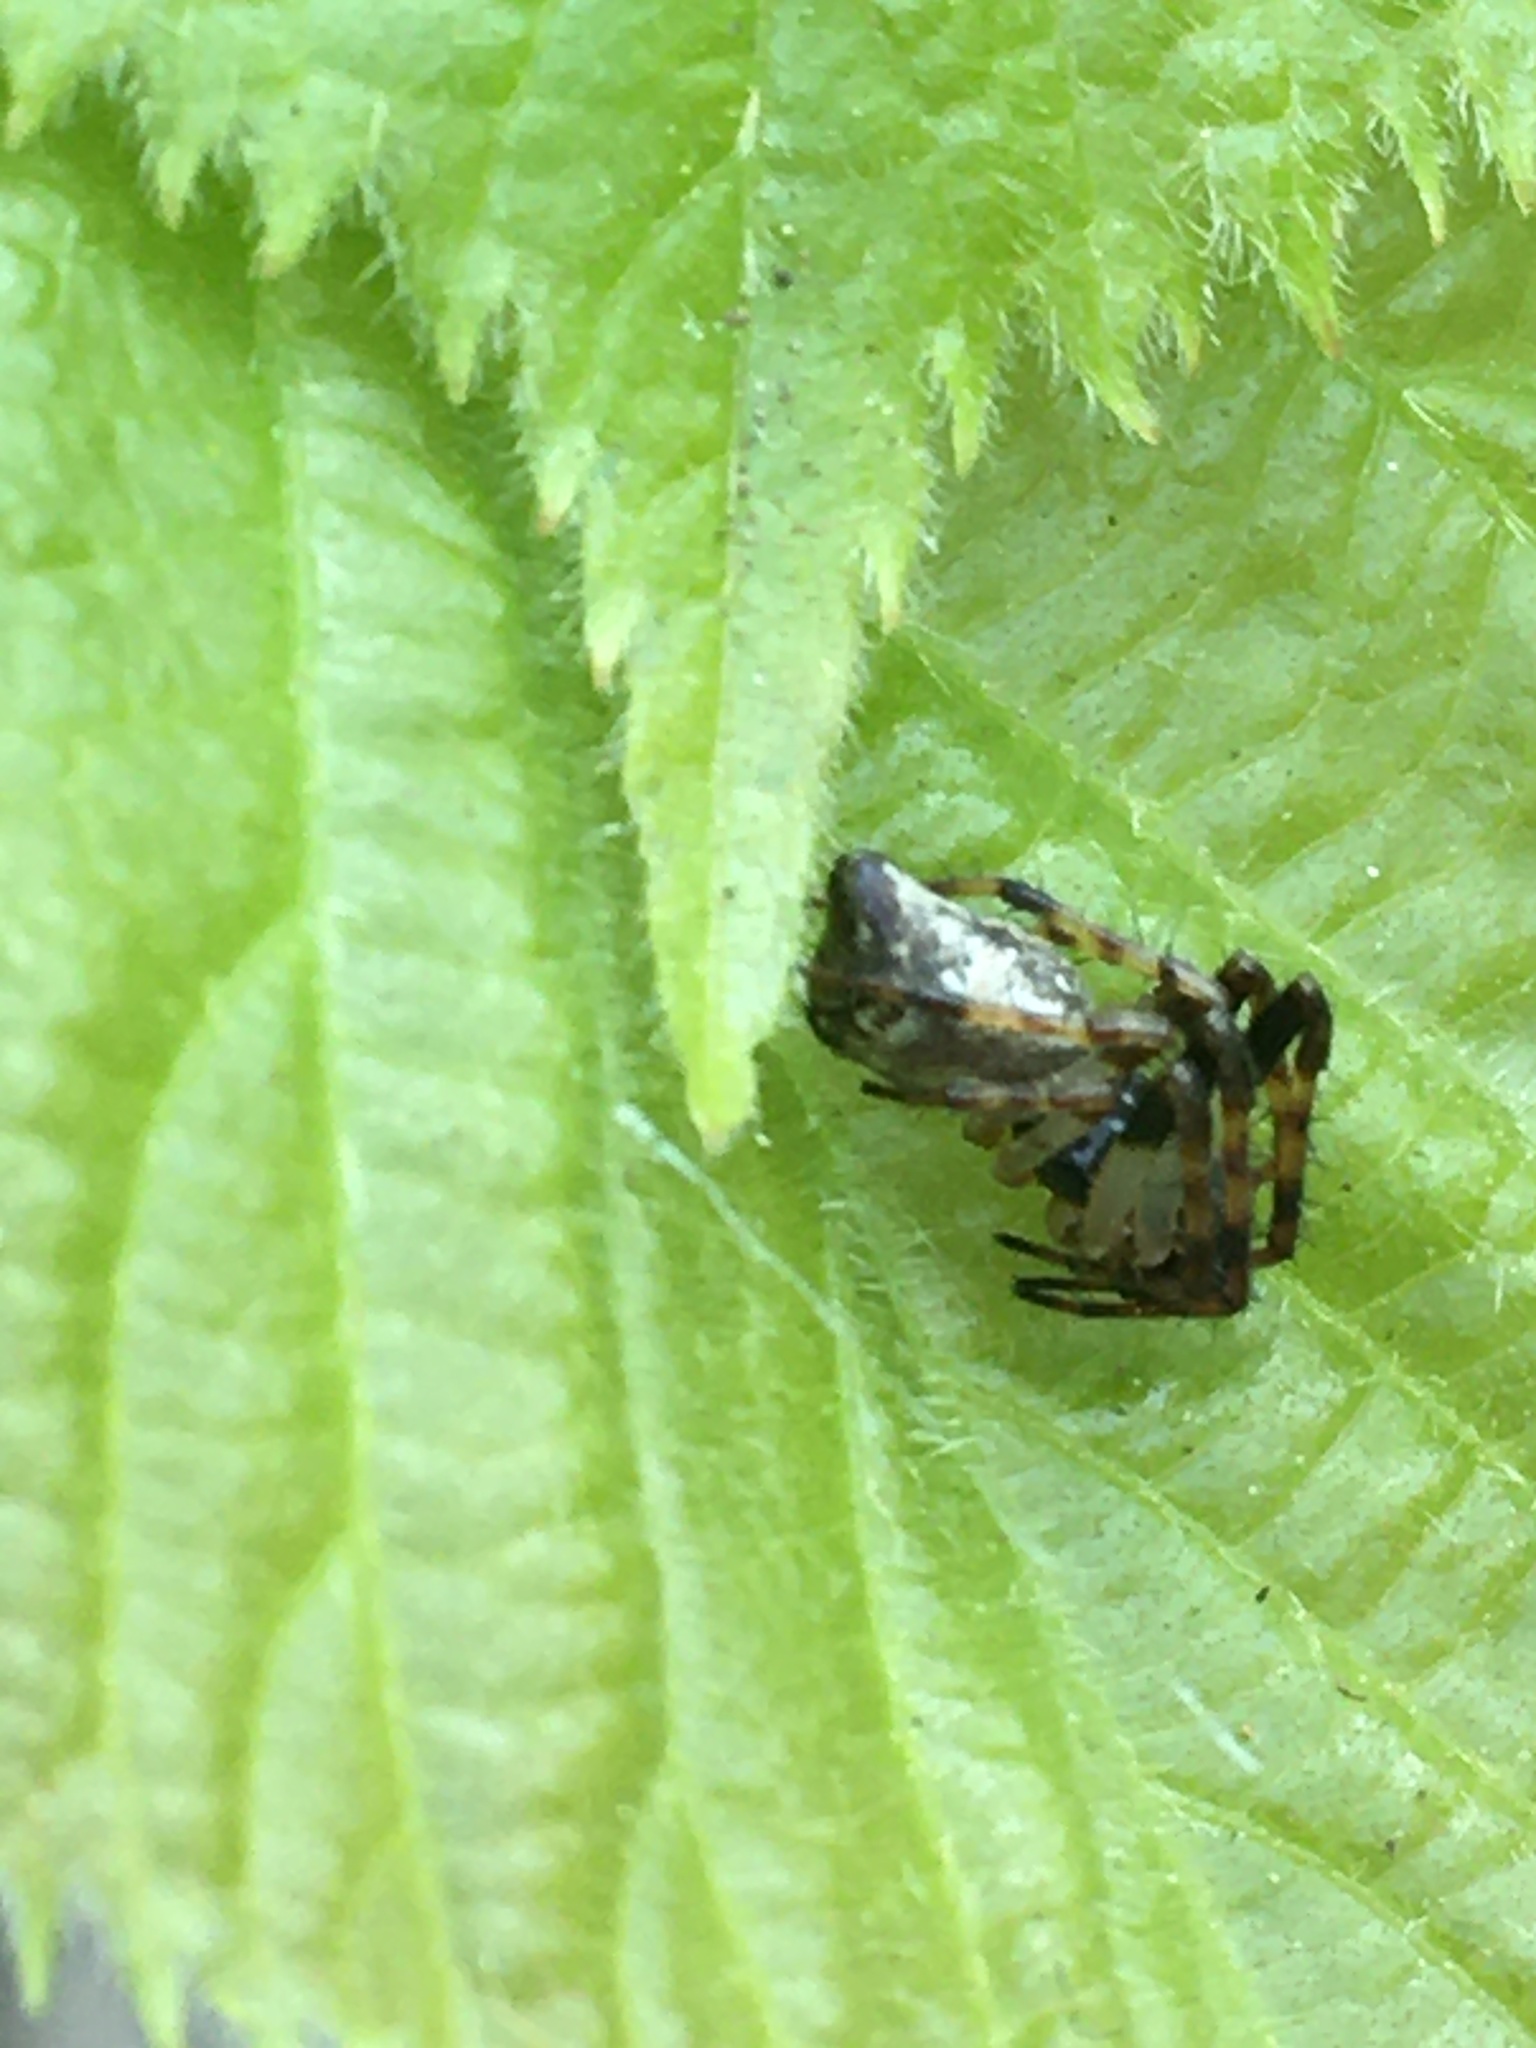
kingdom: Animalia
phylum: Arthropoda
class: Arachnida
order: Araneae
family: Araneidae
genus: Cyclosa
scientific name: Cyclosa conica
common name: Conical trashline orbweaver
